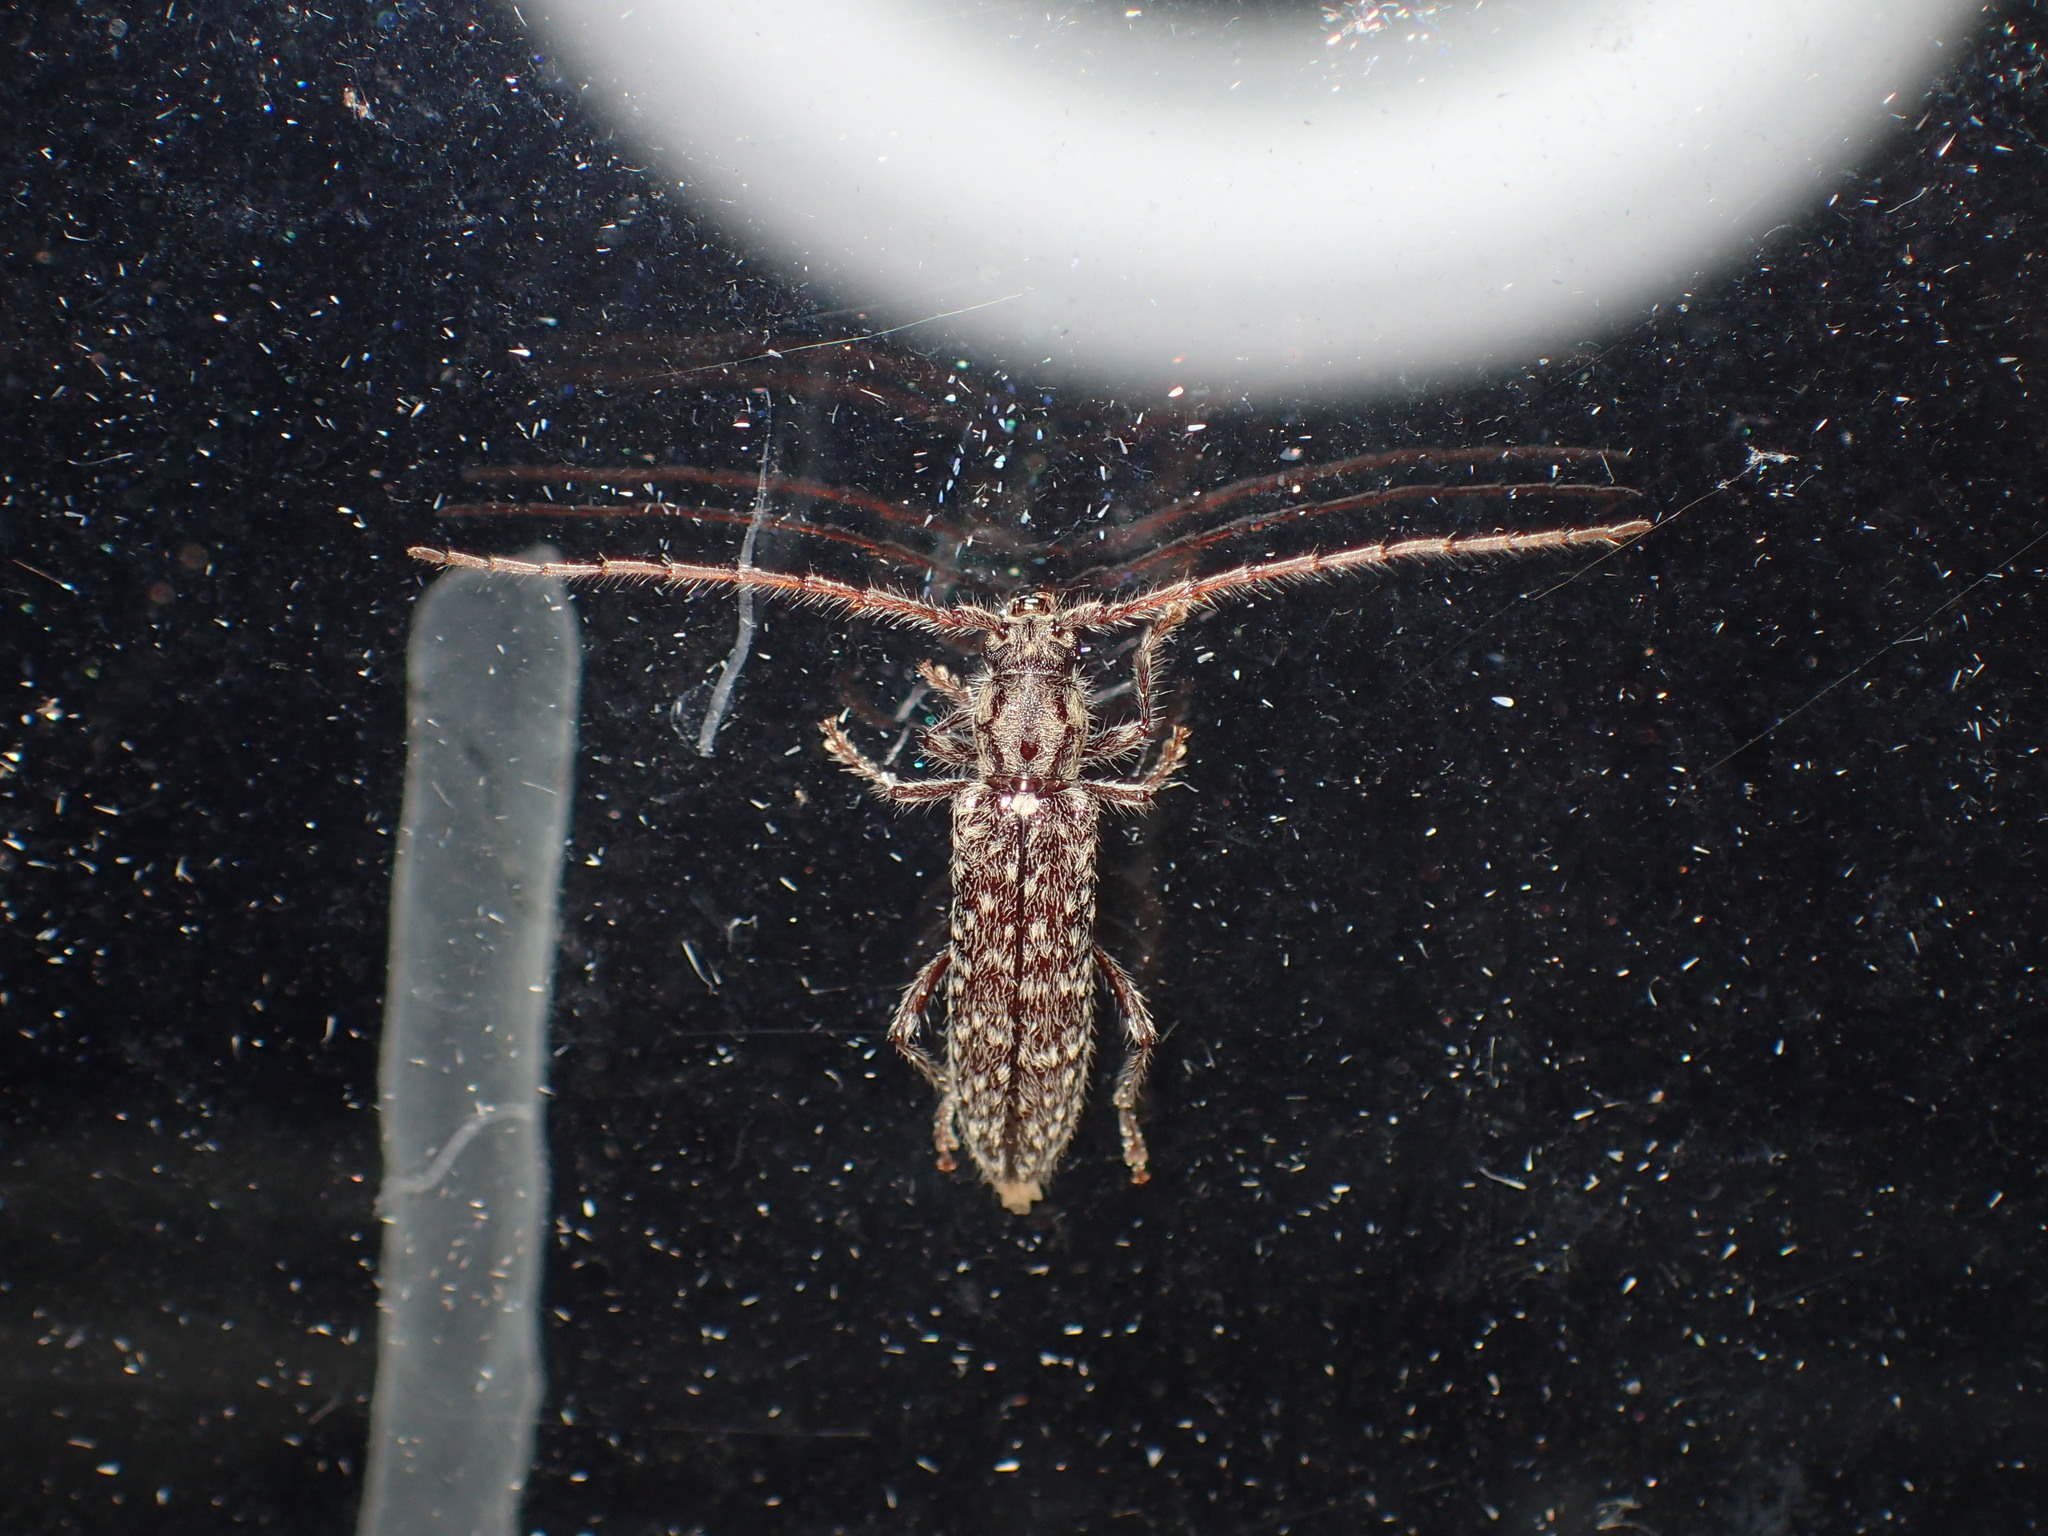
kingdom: Animalia
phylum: Arthropoda
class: Insecta
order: Coleoptera
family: Cerambycidae
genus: Anelaphus
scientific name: Anelaphus pumilus
